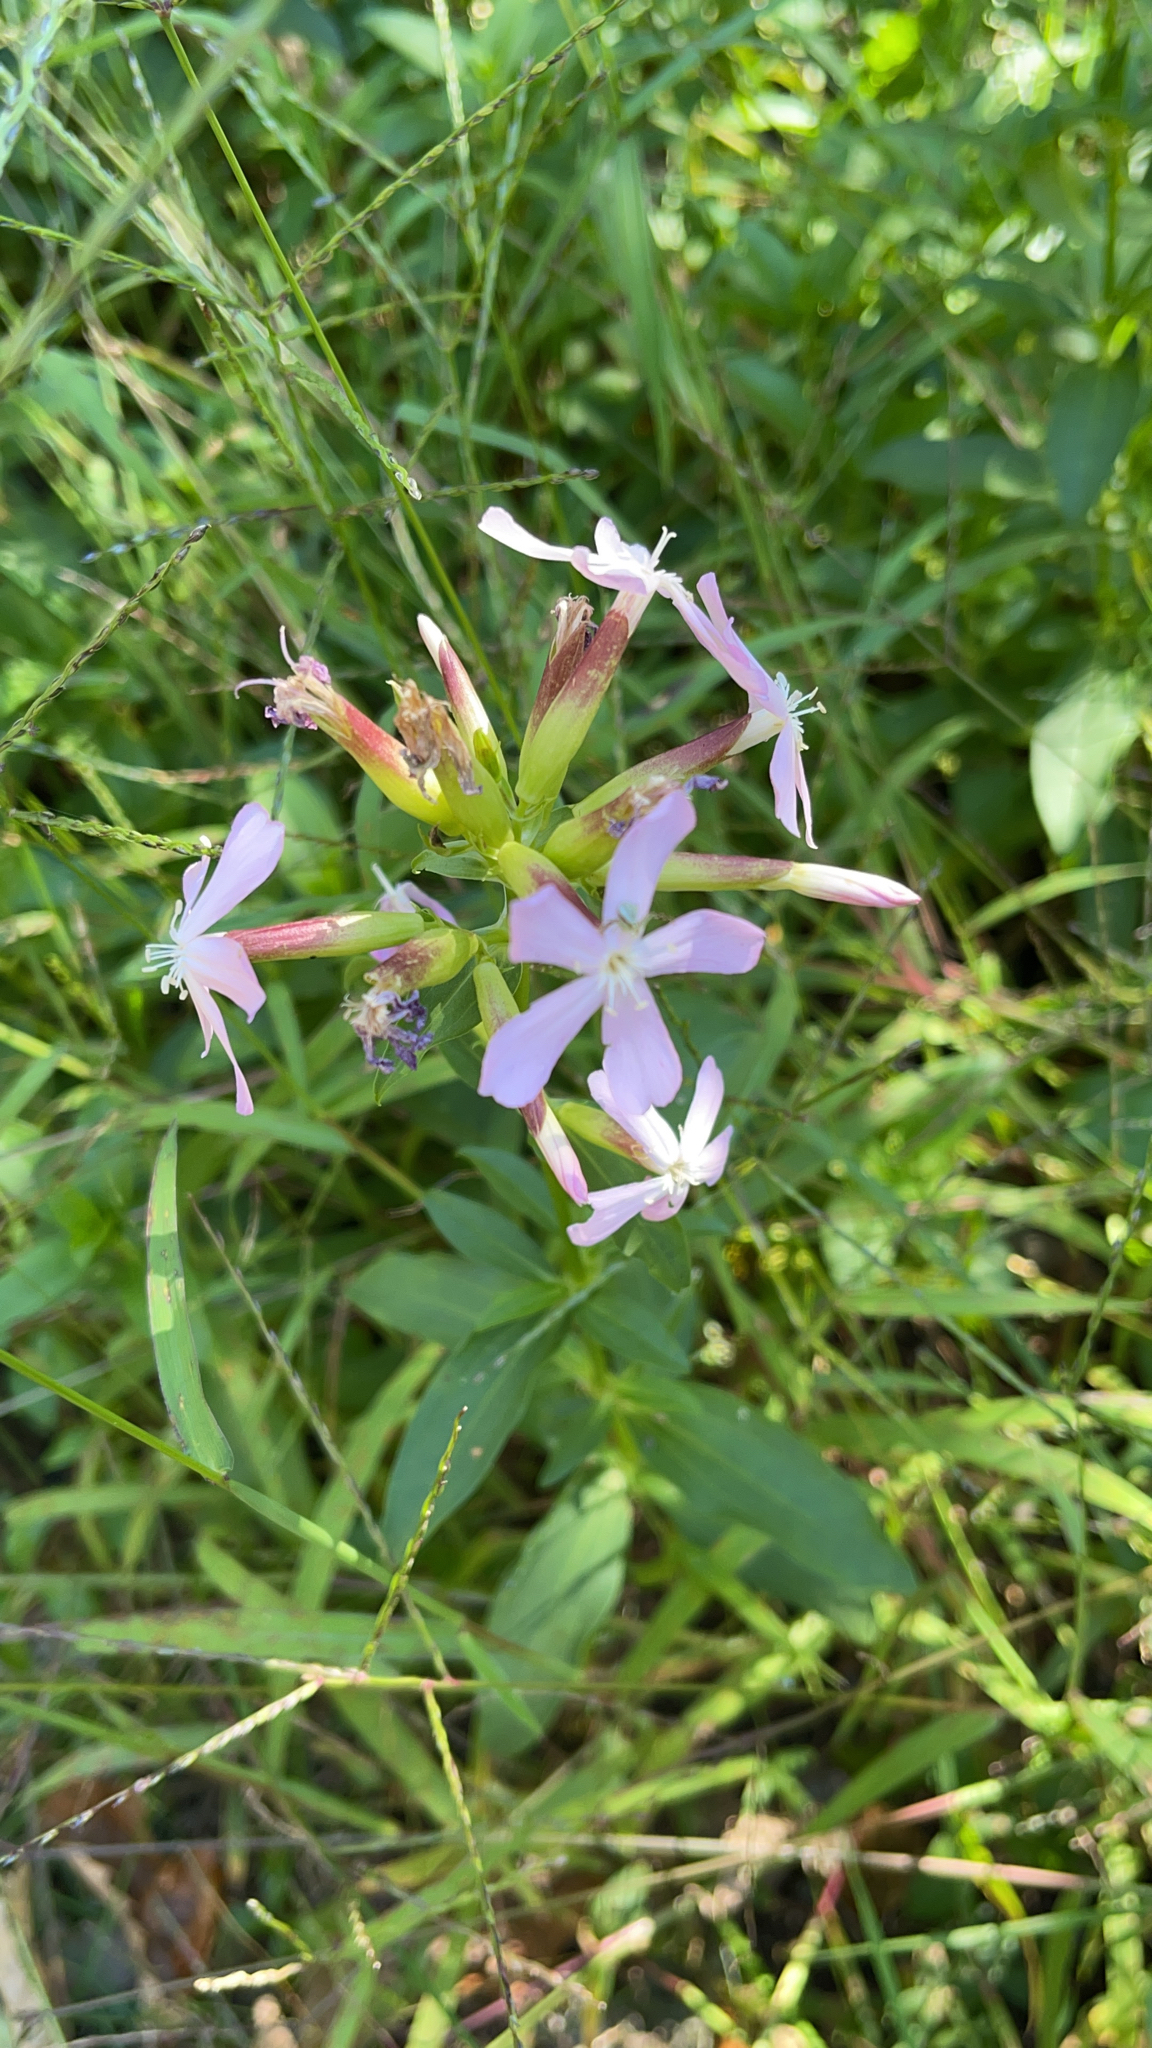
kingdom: Plantae
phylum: Tracheophyta
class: Magnoliopsida
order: Caryophyllales
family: Caryophyllaceae
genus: Saponaria
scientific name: Saponaria officinalis
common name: Soapwort
